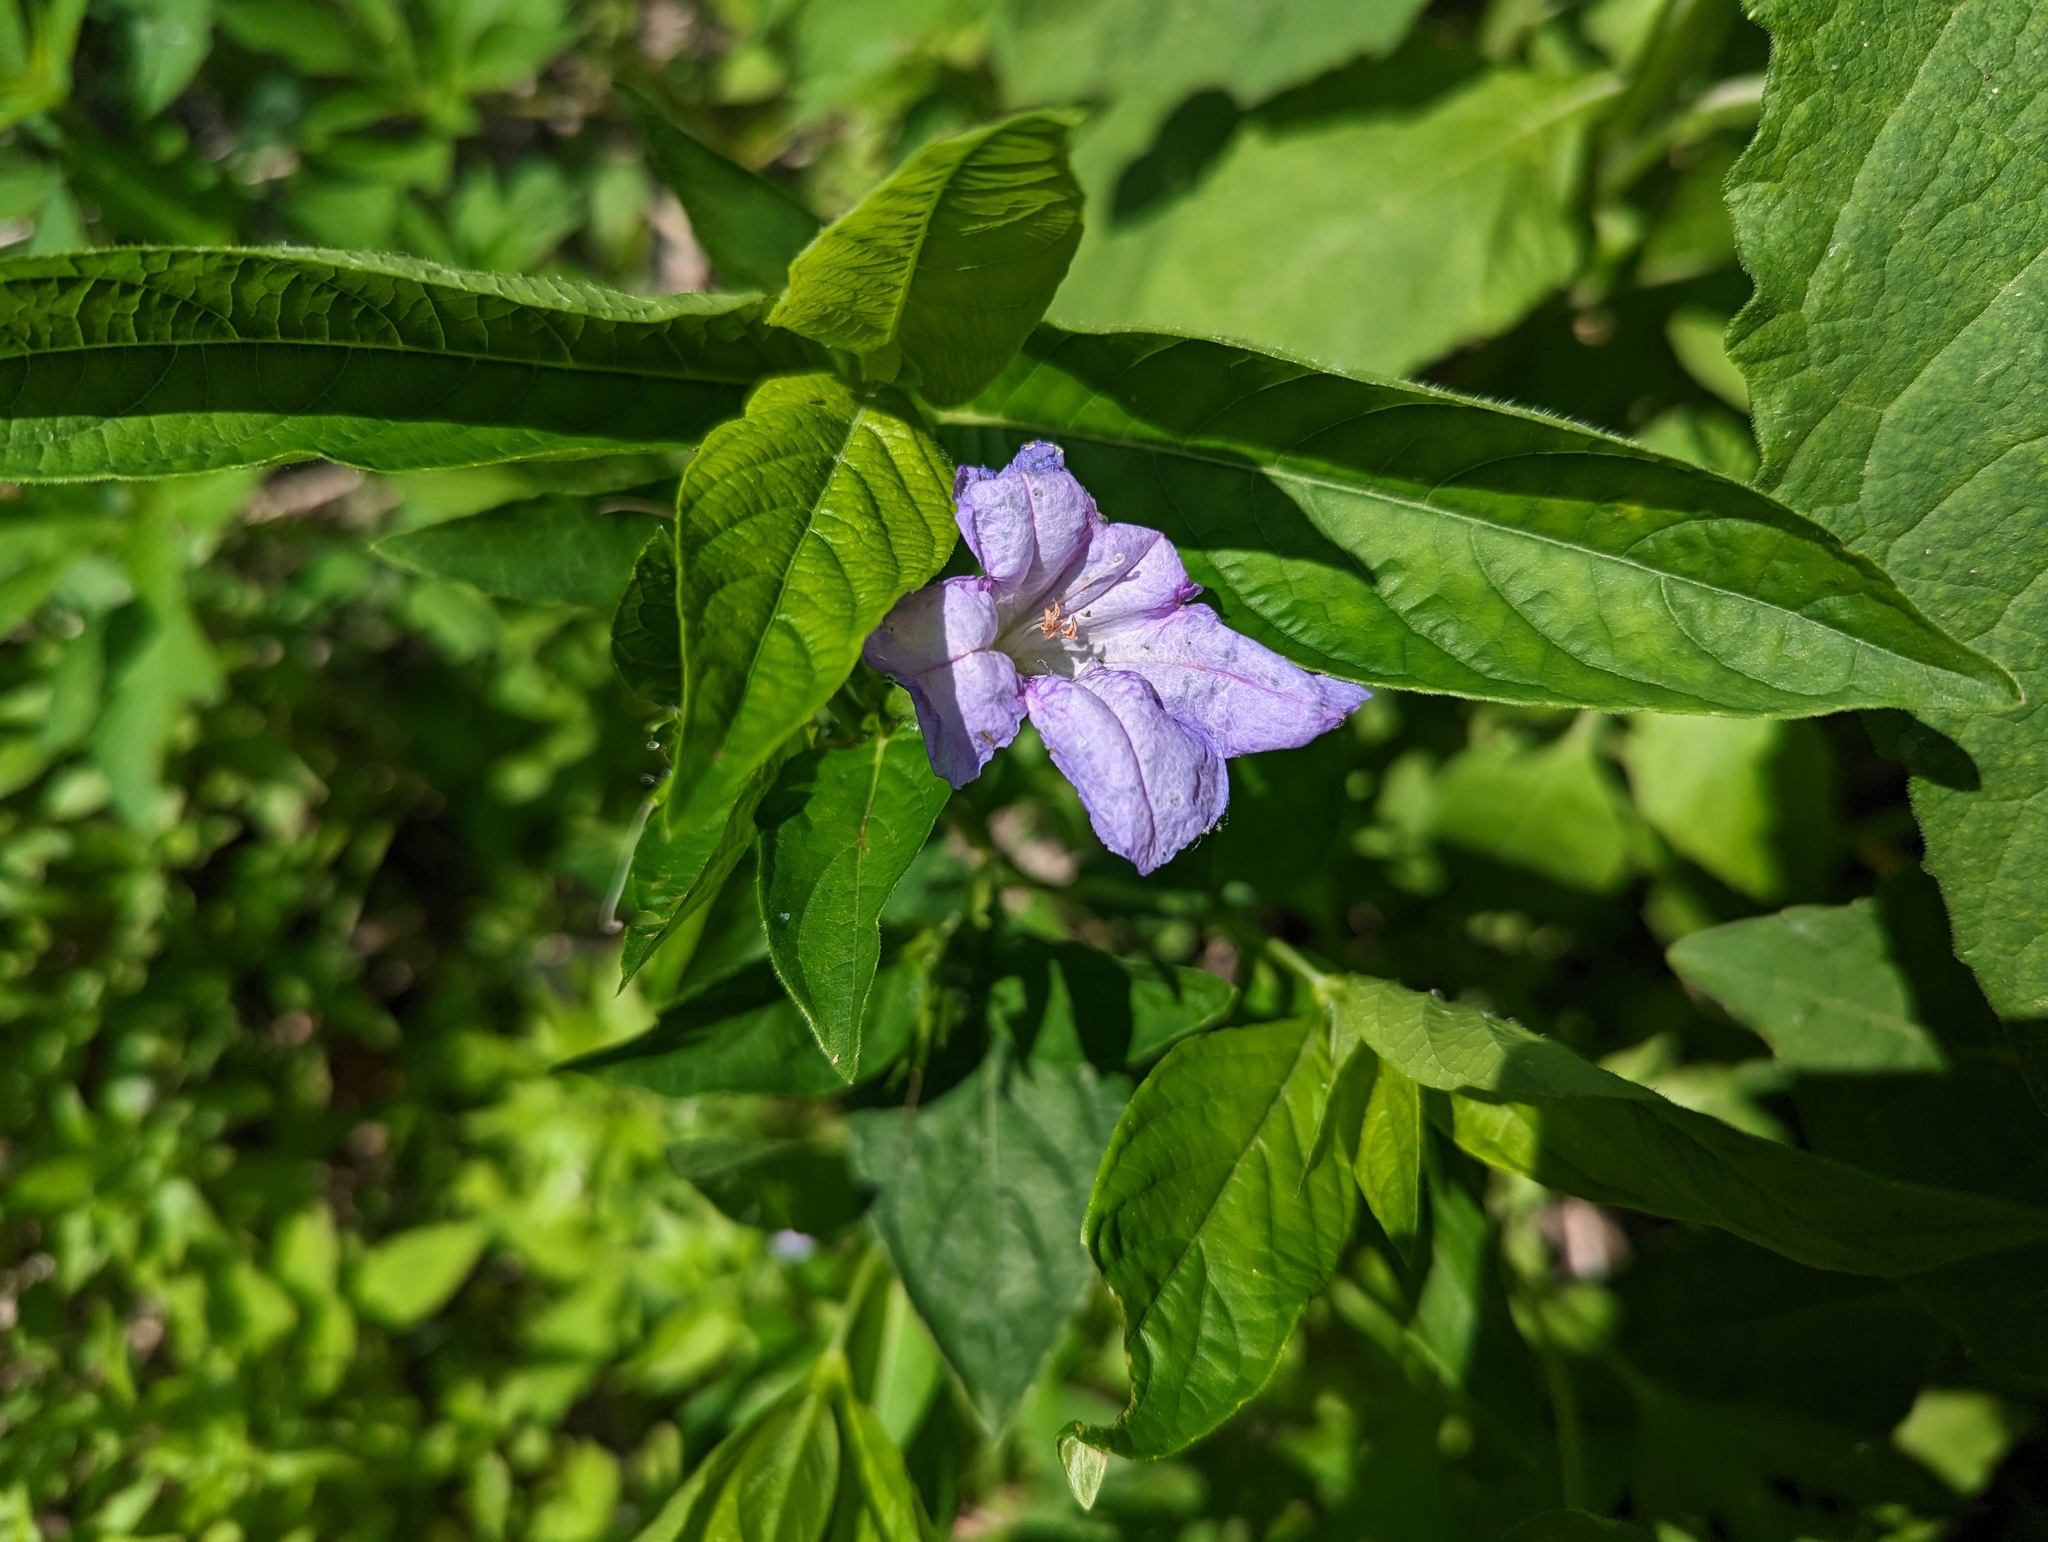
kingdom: Plantae
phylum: Tracheophyta
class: Magnoliopsida
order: Lamiales
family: Acanthaceae
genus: Ruellia
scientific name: Ruellia strepens
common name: Limestone wild petunia
